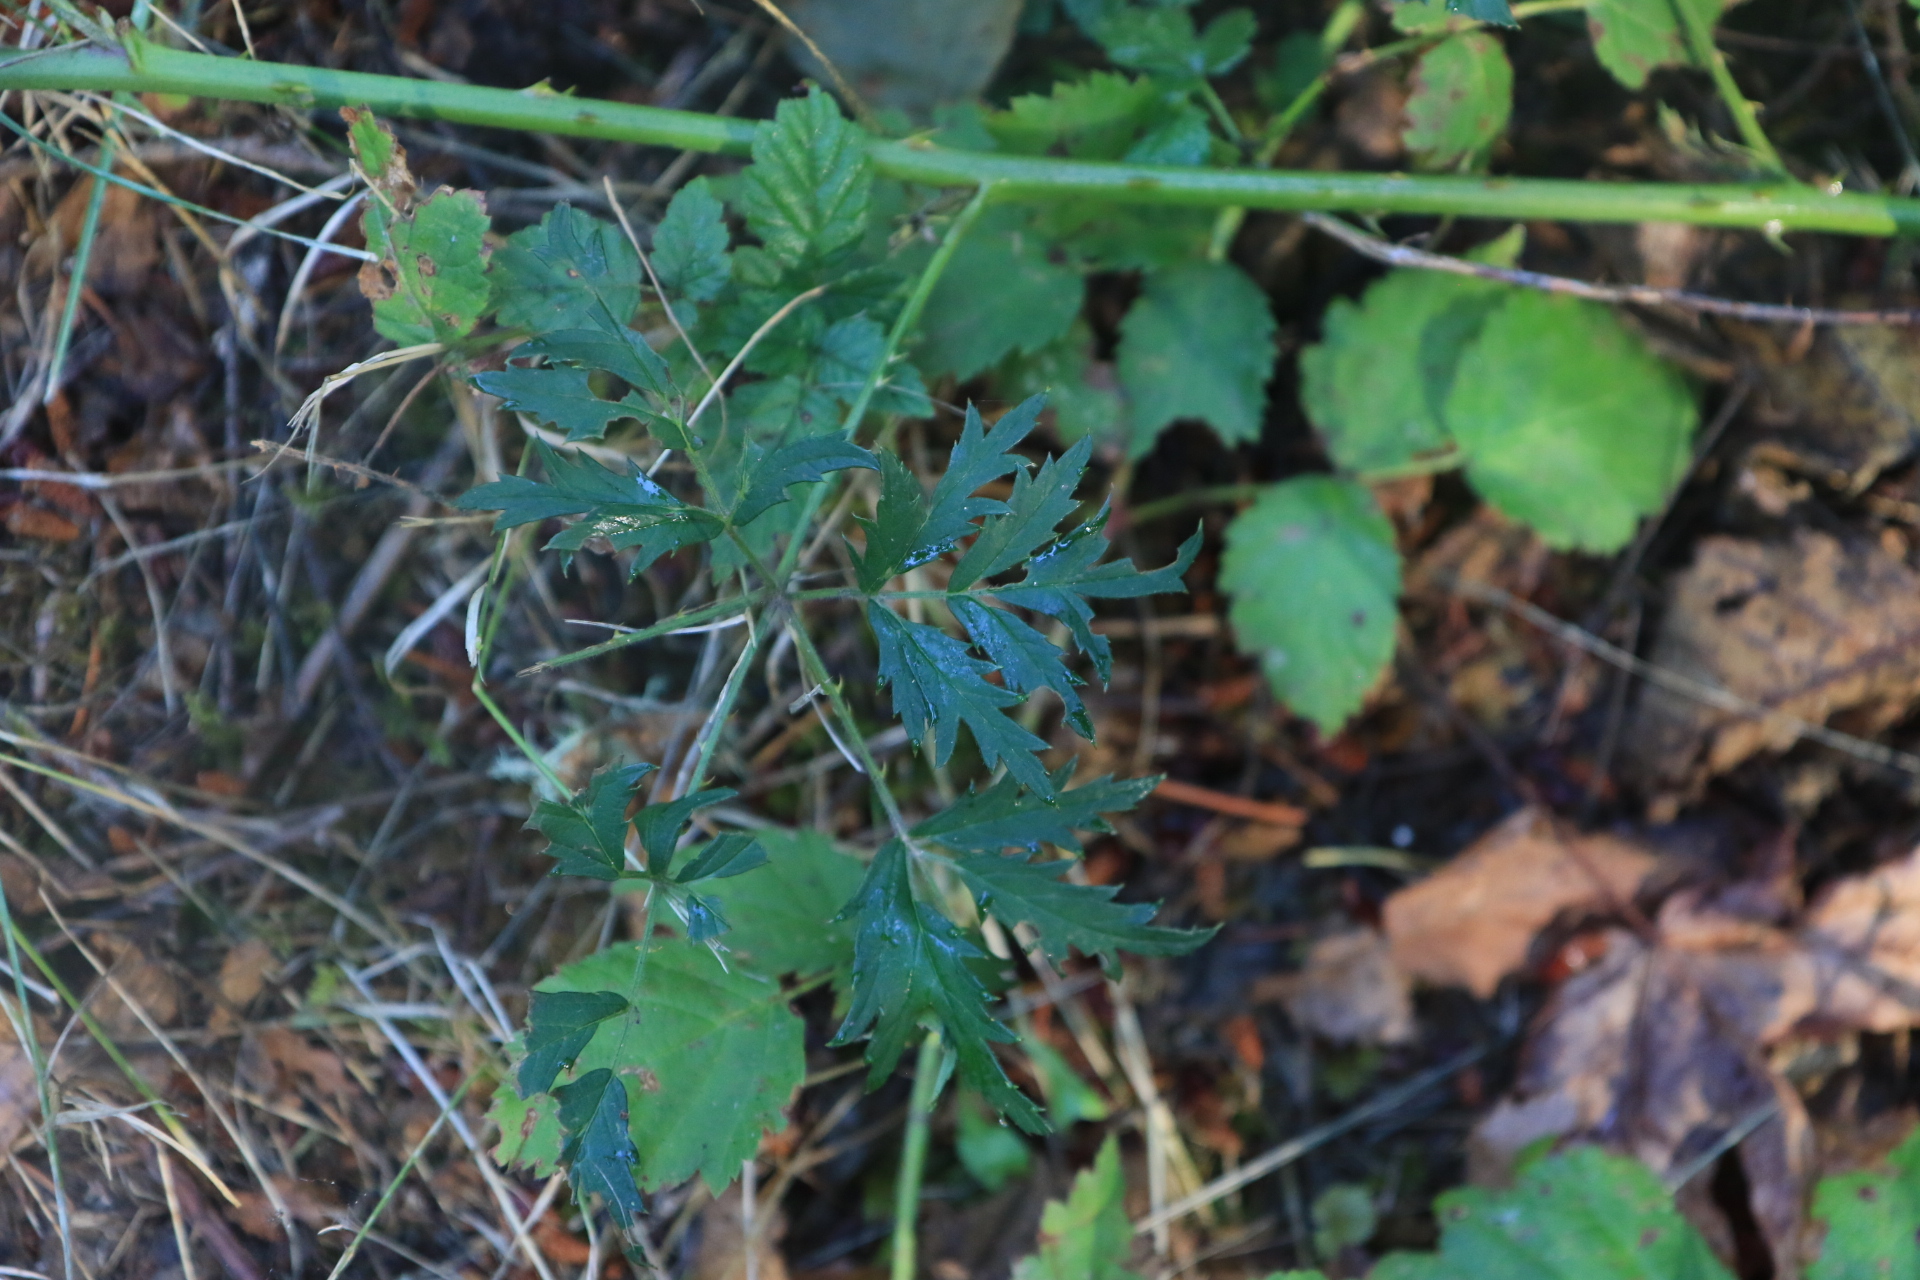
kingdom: Plantae
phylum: Tracheophyta
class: Magnoliopsida
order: Rosales
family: Rosaceae
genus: Rubus
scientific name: Rubus laciniatus
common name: Evergreen blackberry
